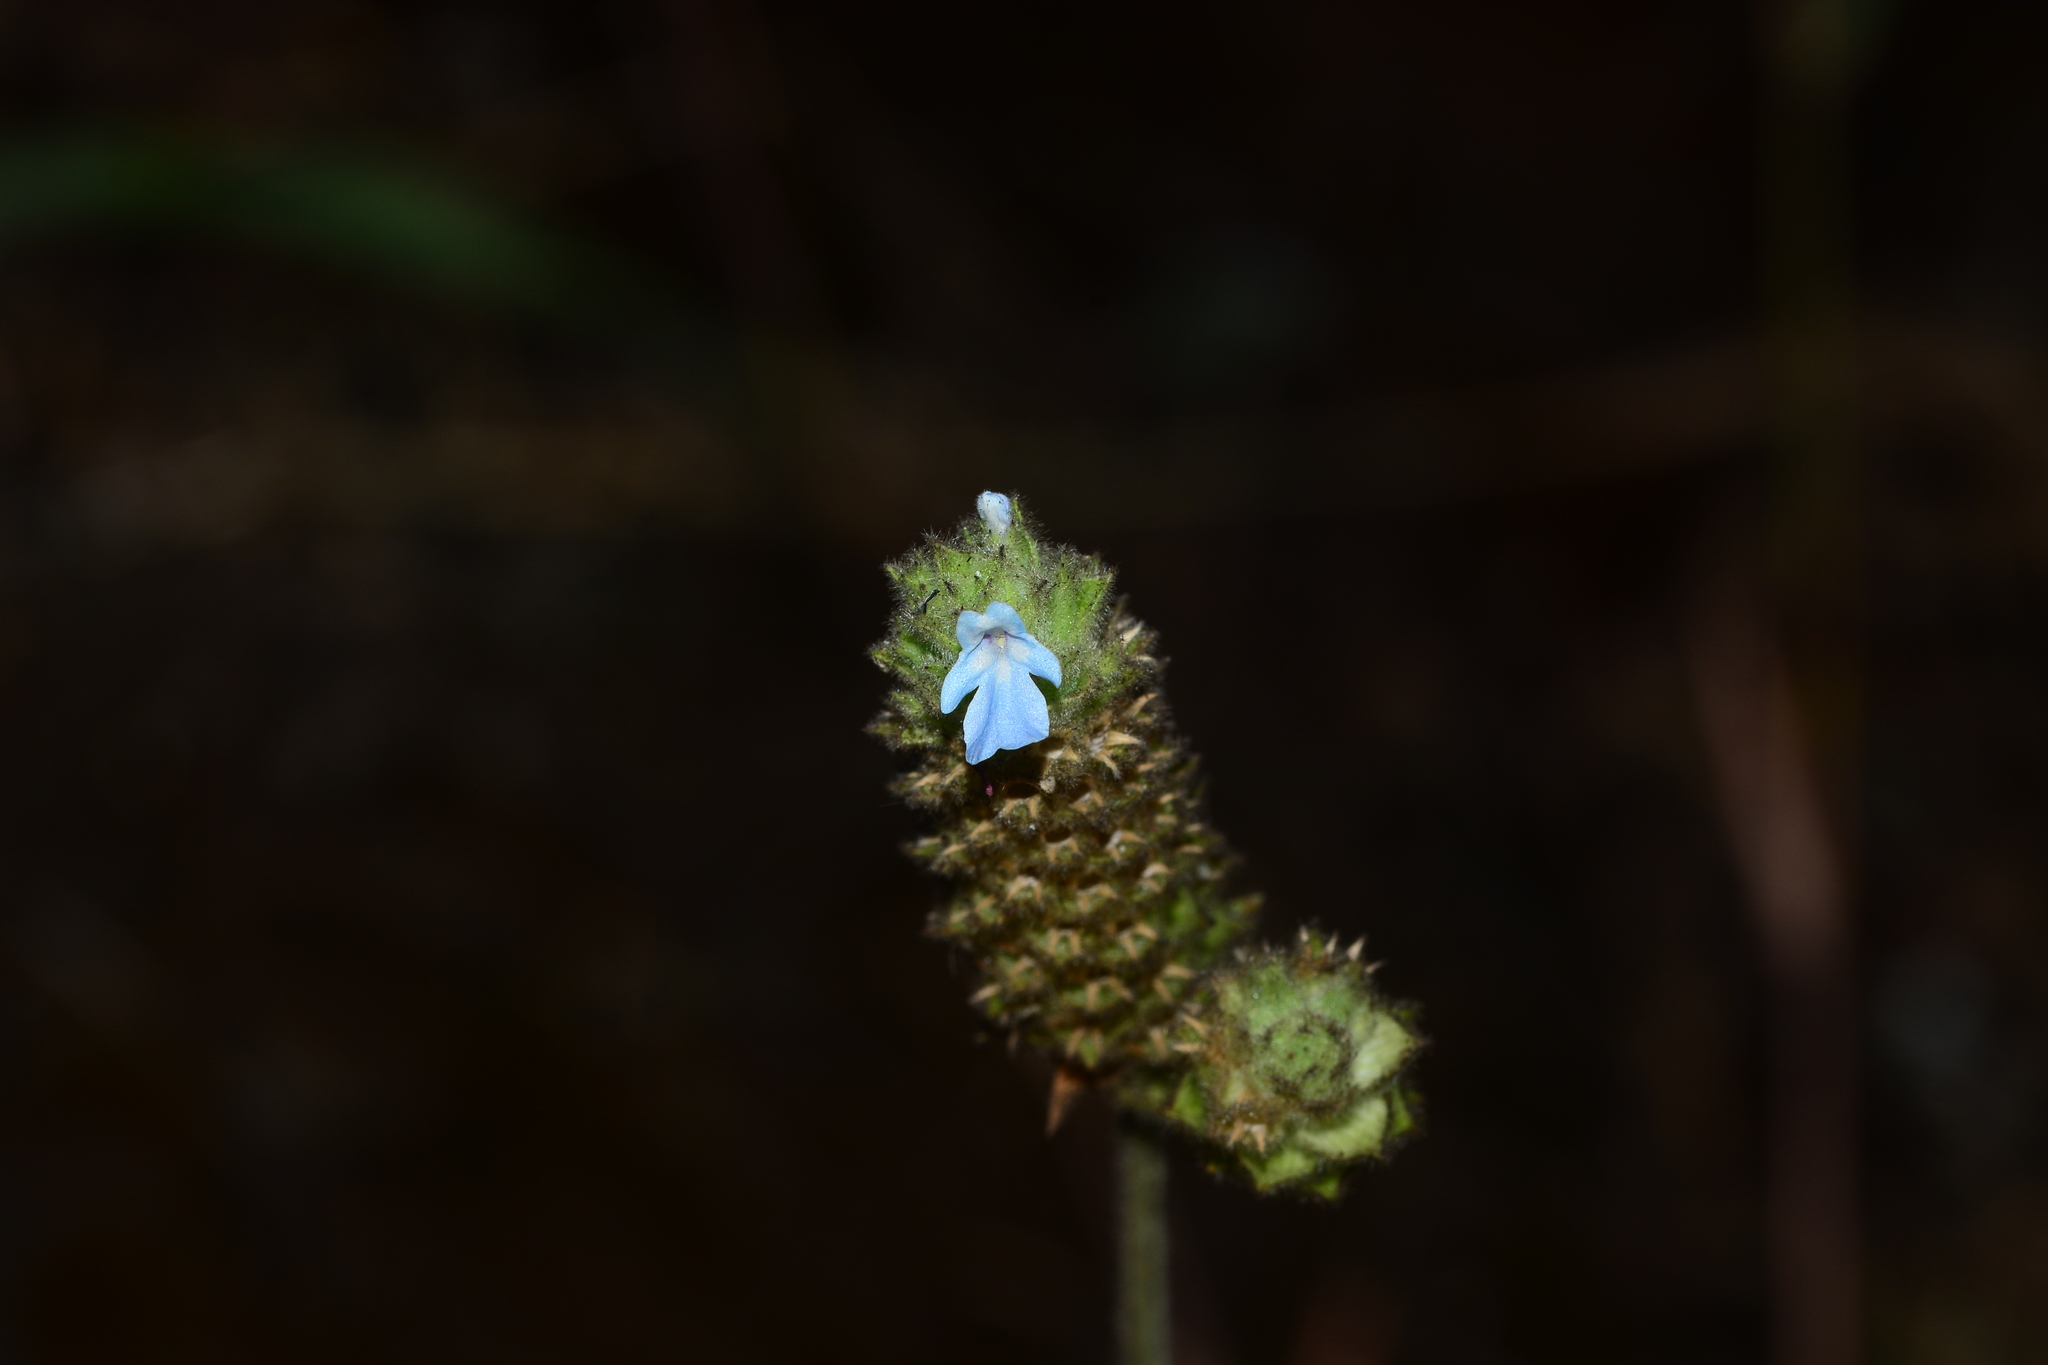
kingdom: Plantae
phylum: Tracheophyta
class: Magnoliopsida
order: Lamiales
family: Lamiaceae
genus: Lavandula
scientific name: Lavandula gibsonii
